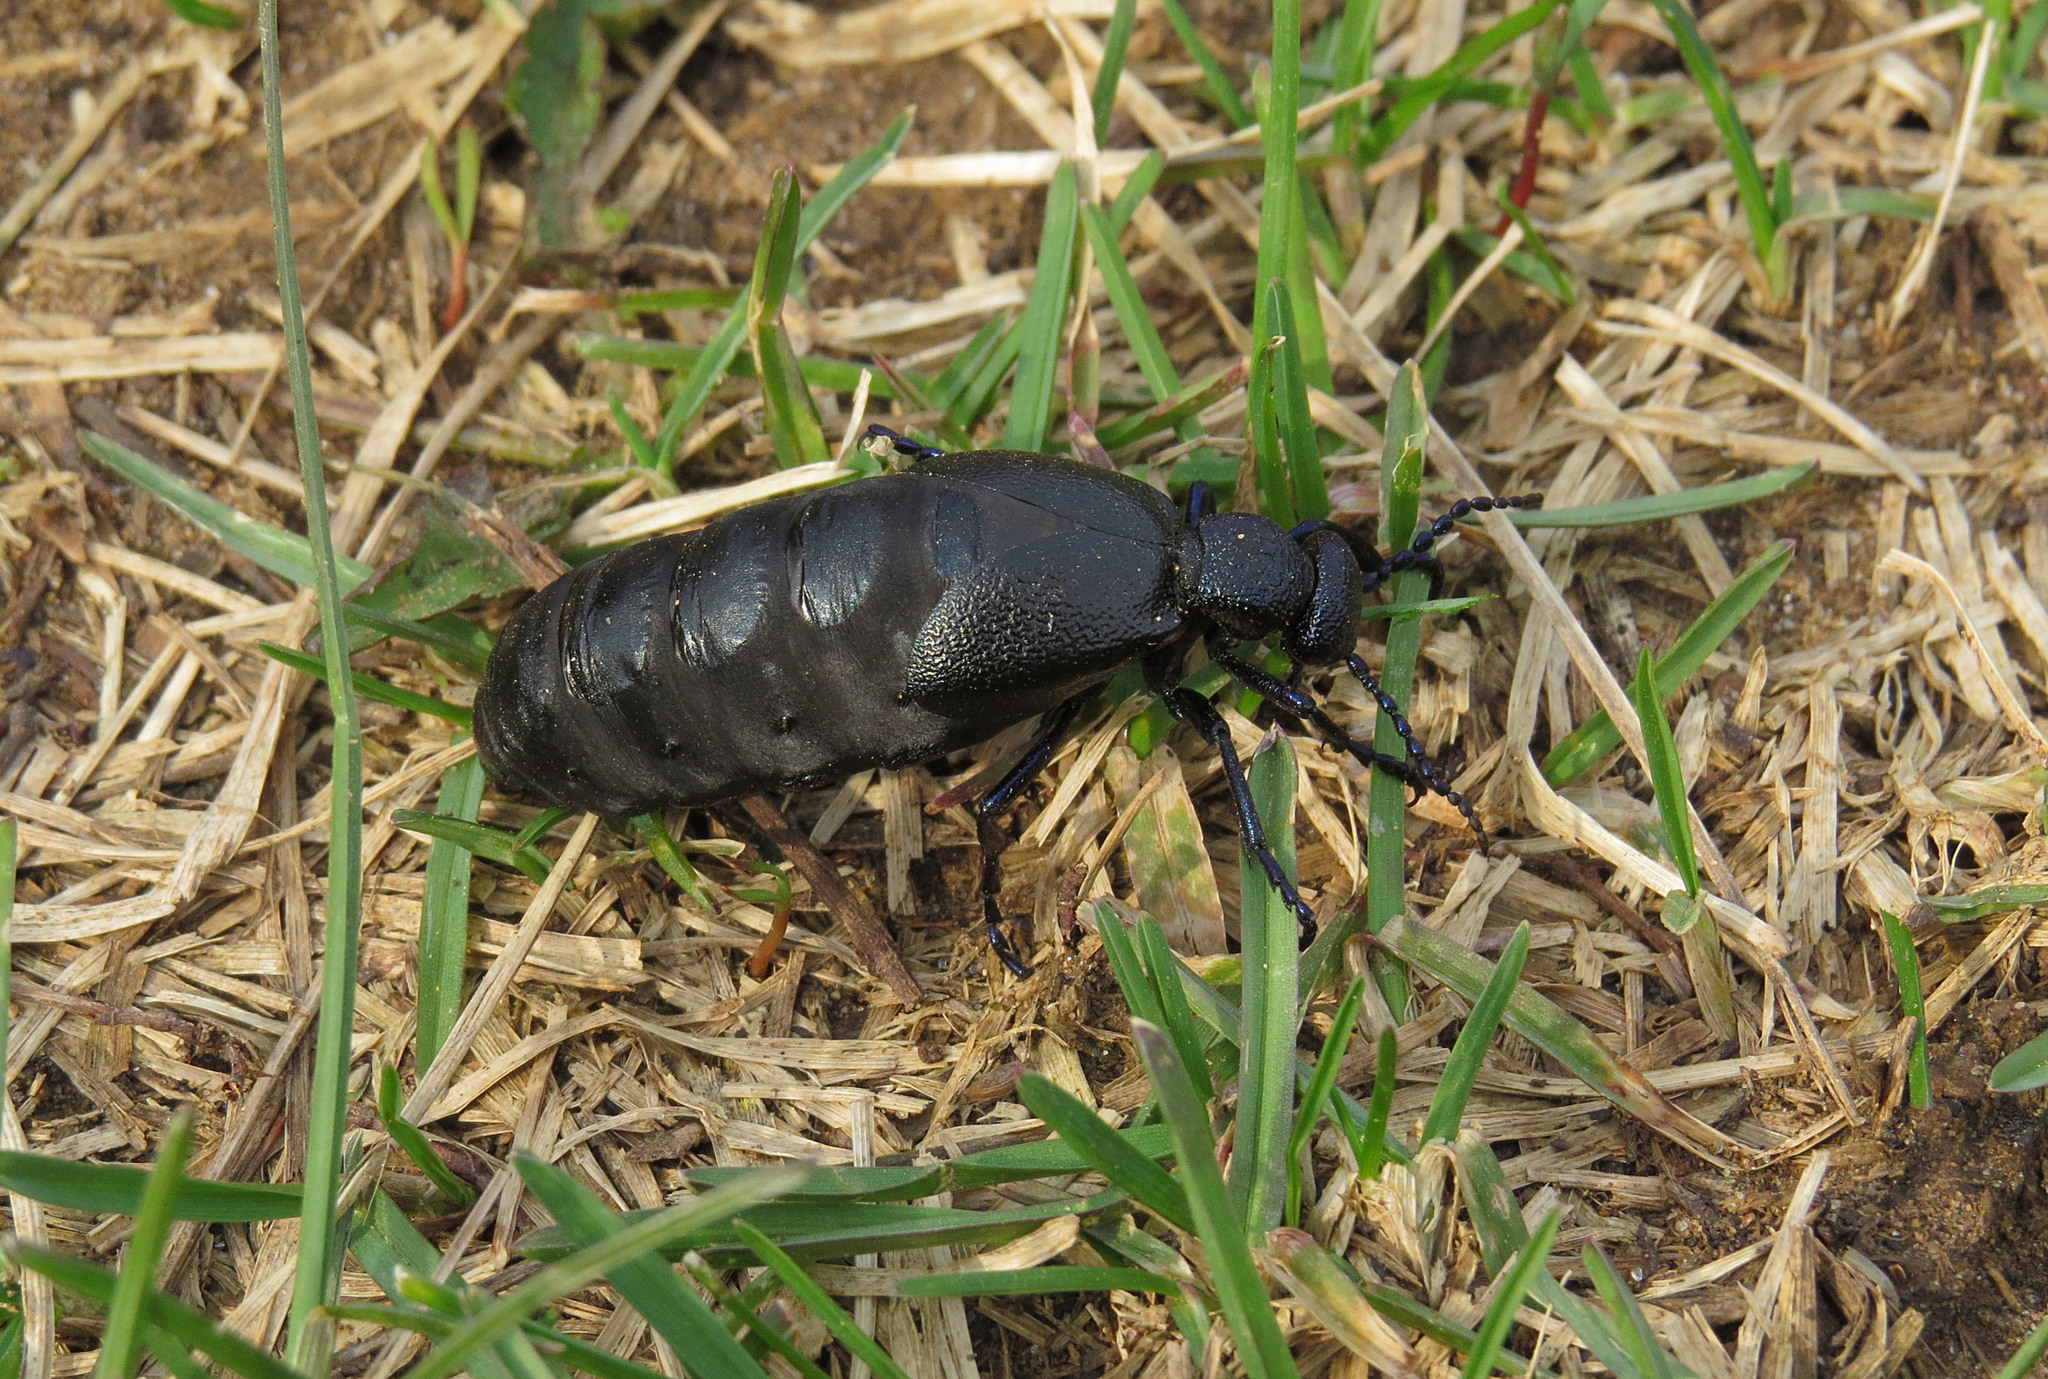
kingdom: Animalia
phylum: Arthropoda
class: Insecta
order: Coleoptera
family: Meloidae
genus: Meloe
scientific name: Meloe proscarabaeus
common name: Black oil-beetle
